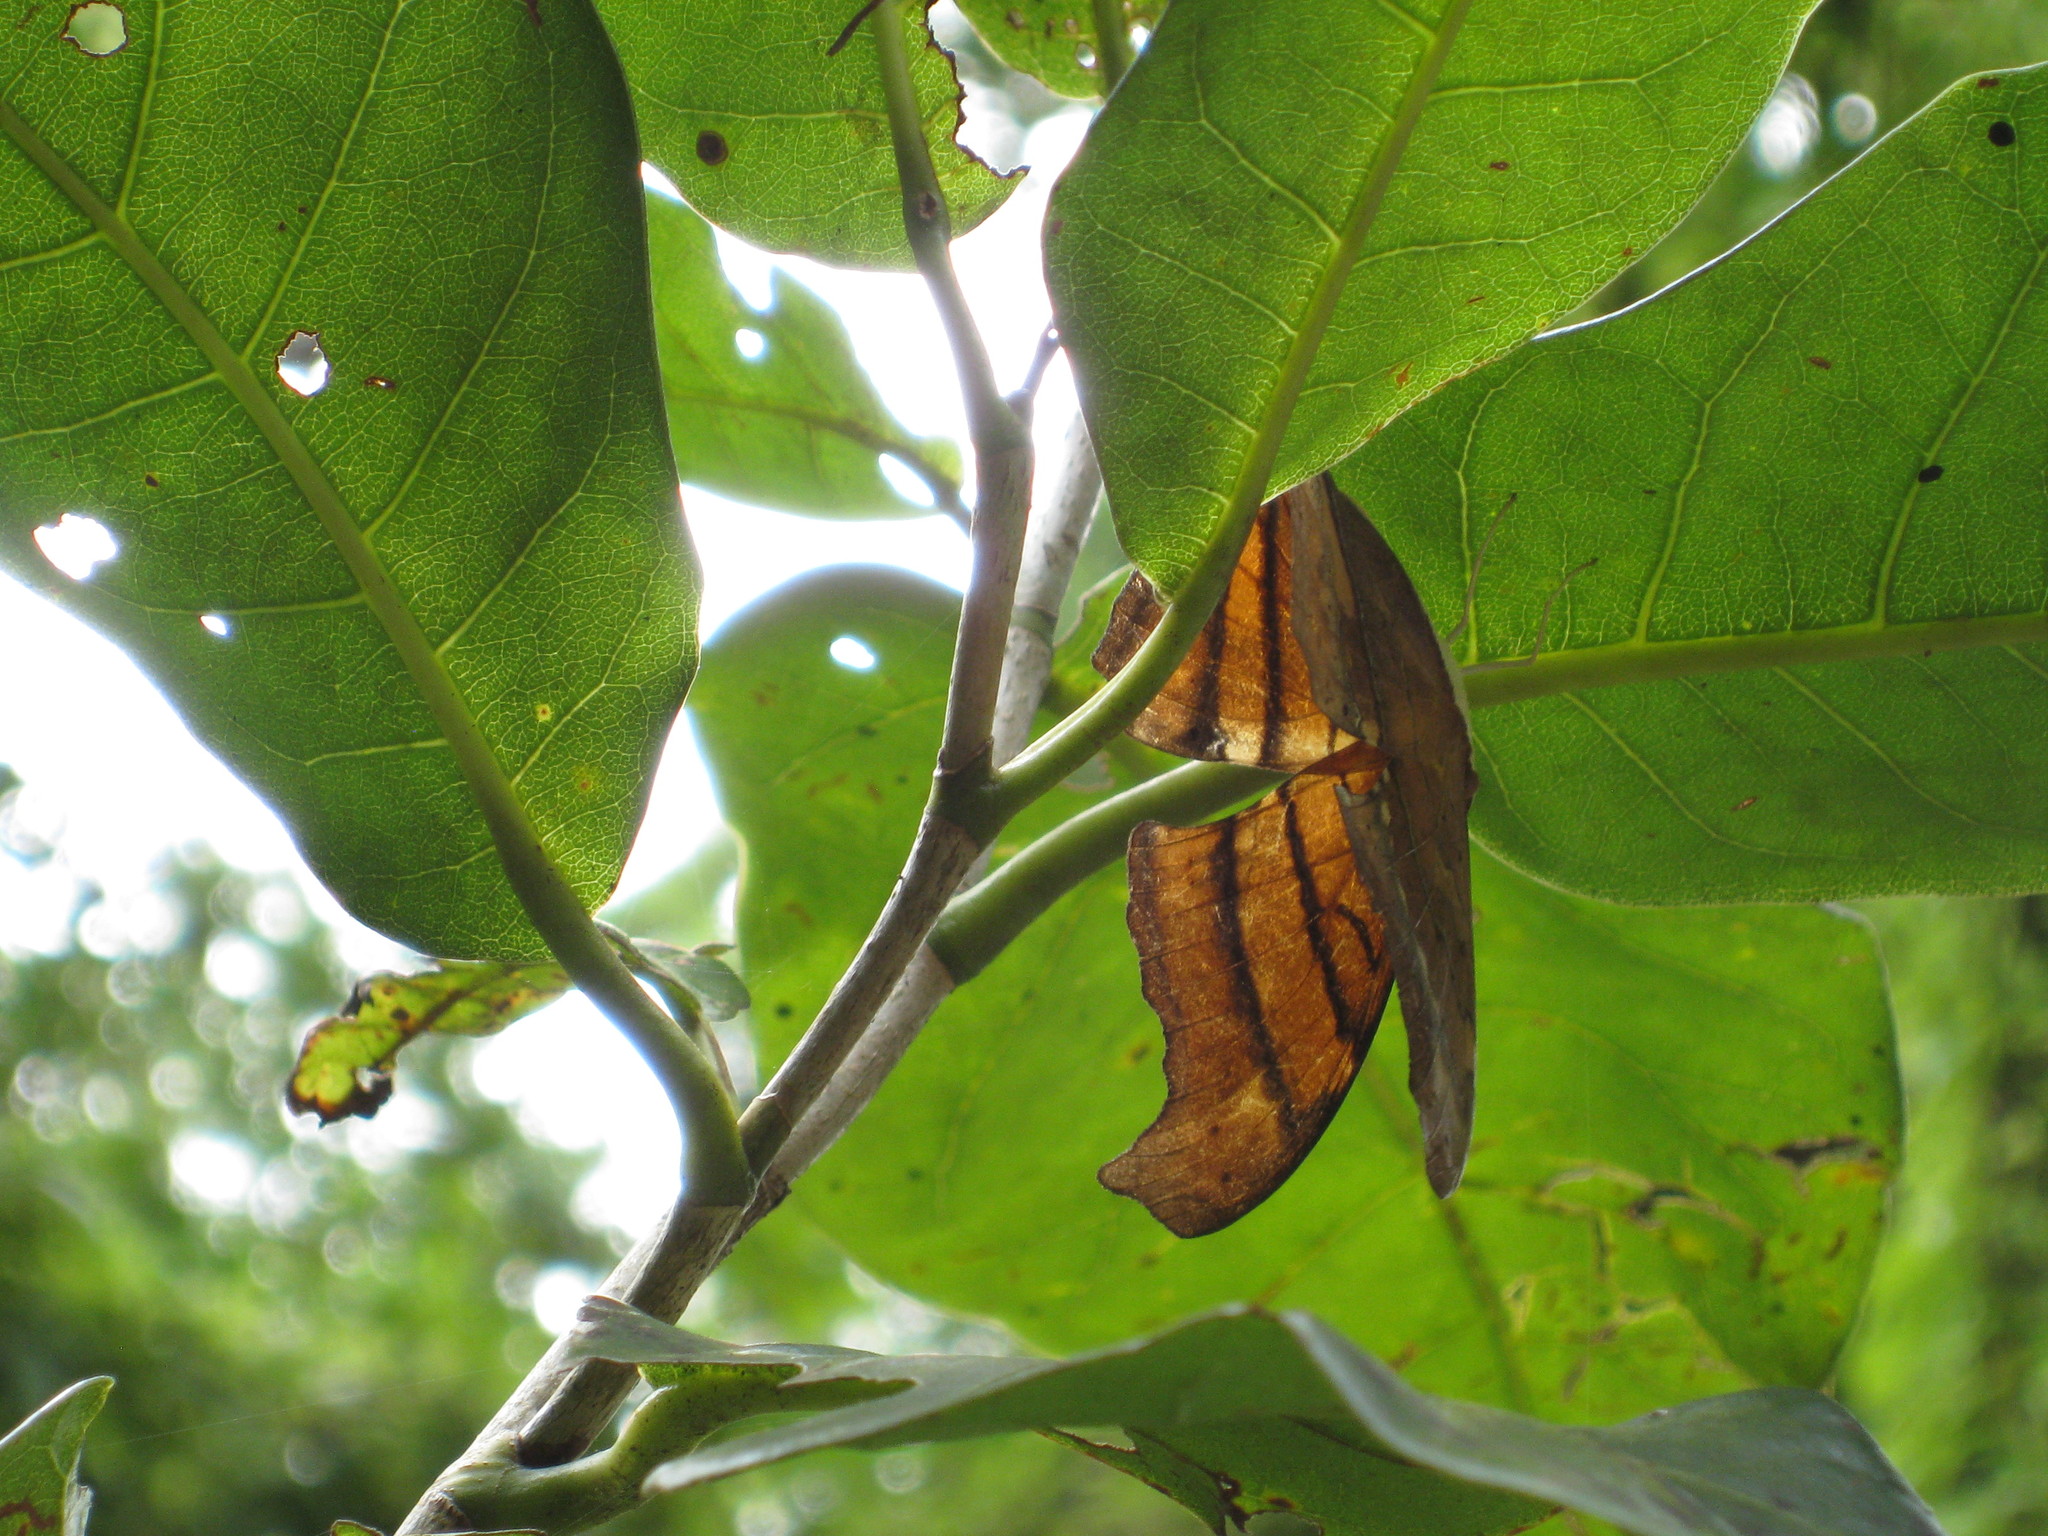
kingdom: Animalia
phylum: Arthropoda
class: Insecta
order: Lepidoptera
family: Nymphalidae
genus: Marpesia
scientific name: Marpesia petreus
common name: Red dagger wing
